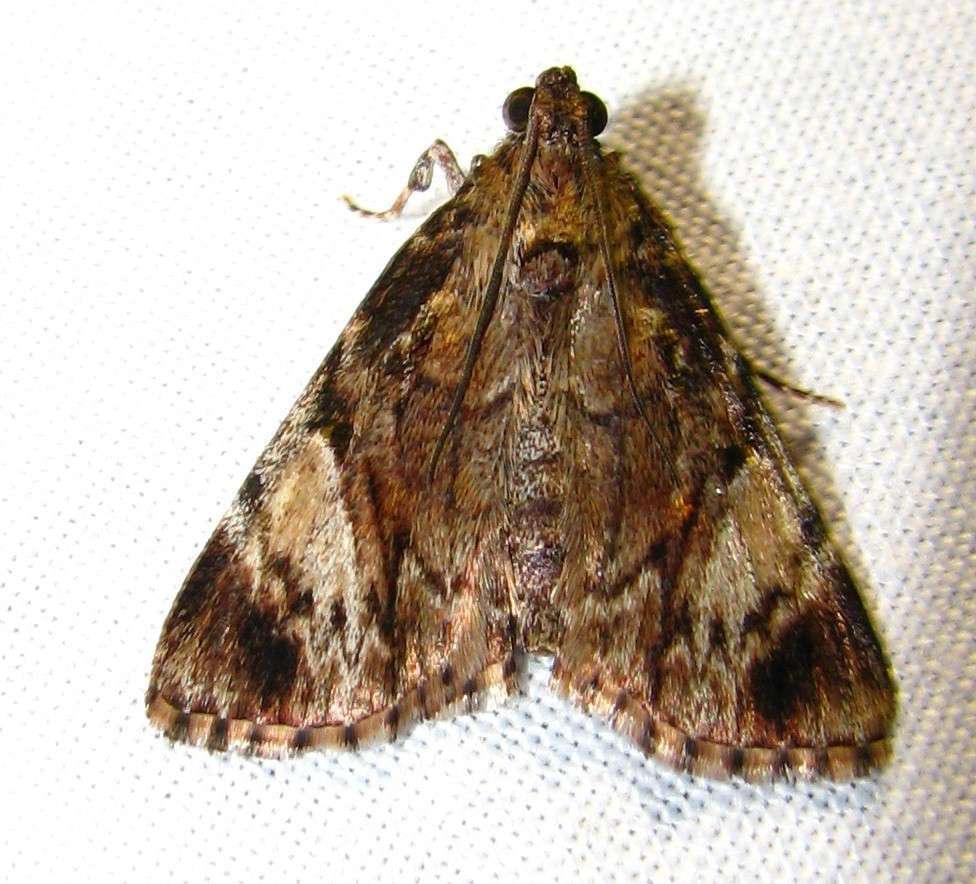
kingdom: Animalia
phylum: Arthropoda
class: Insecta
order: Lepidoptera
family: Pyralidae
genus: Salma
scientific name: Salma cholica
